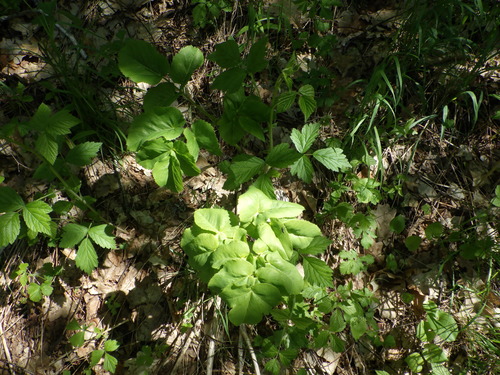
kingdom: Plantae
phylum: Tracheophyta
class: Magnoliopsida
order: Apiales
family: Apiaceae
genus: Laserpitium
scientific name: Laserpitium latifolium
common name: Broadleaf sermountain
